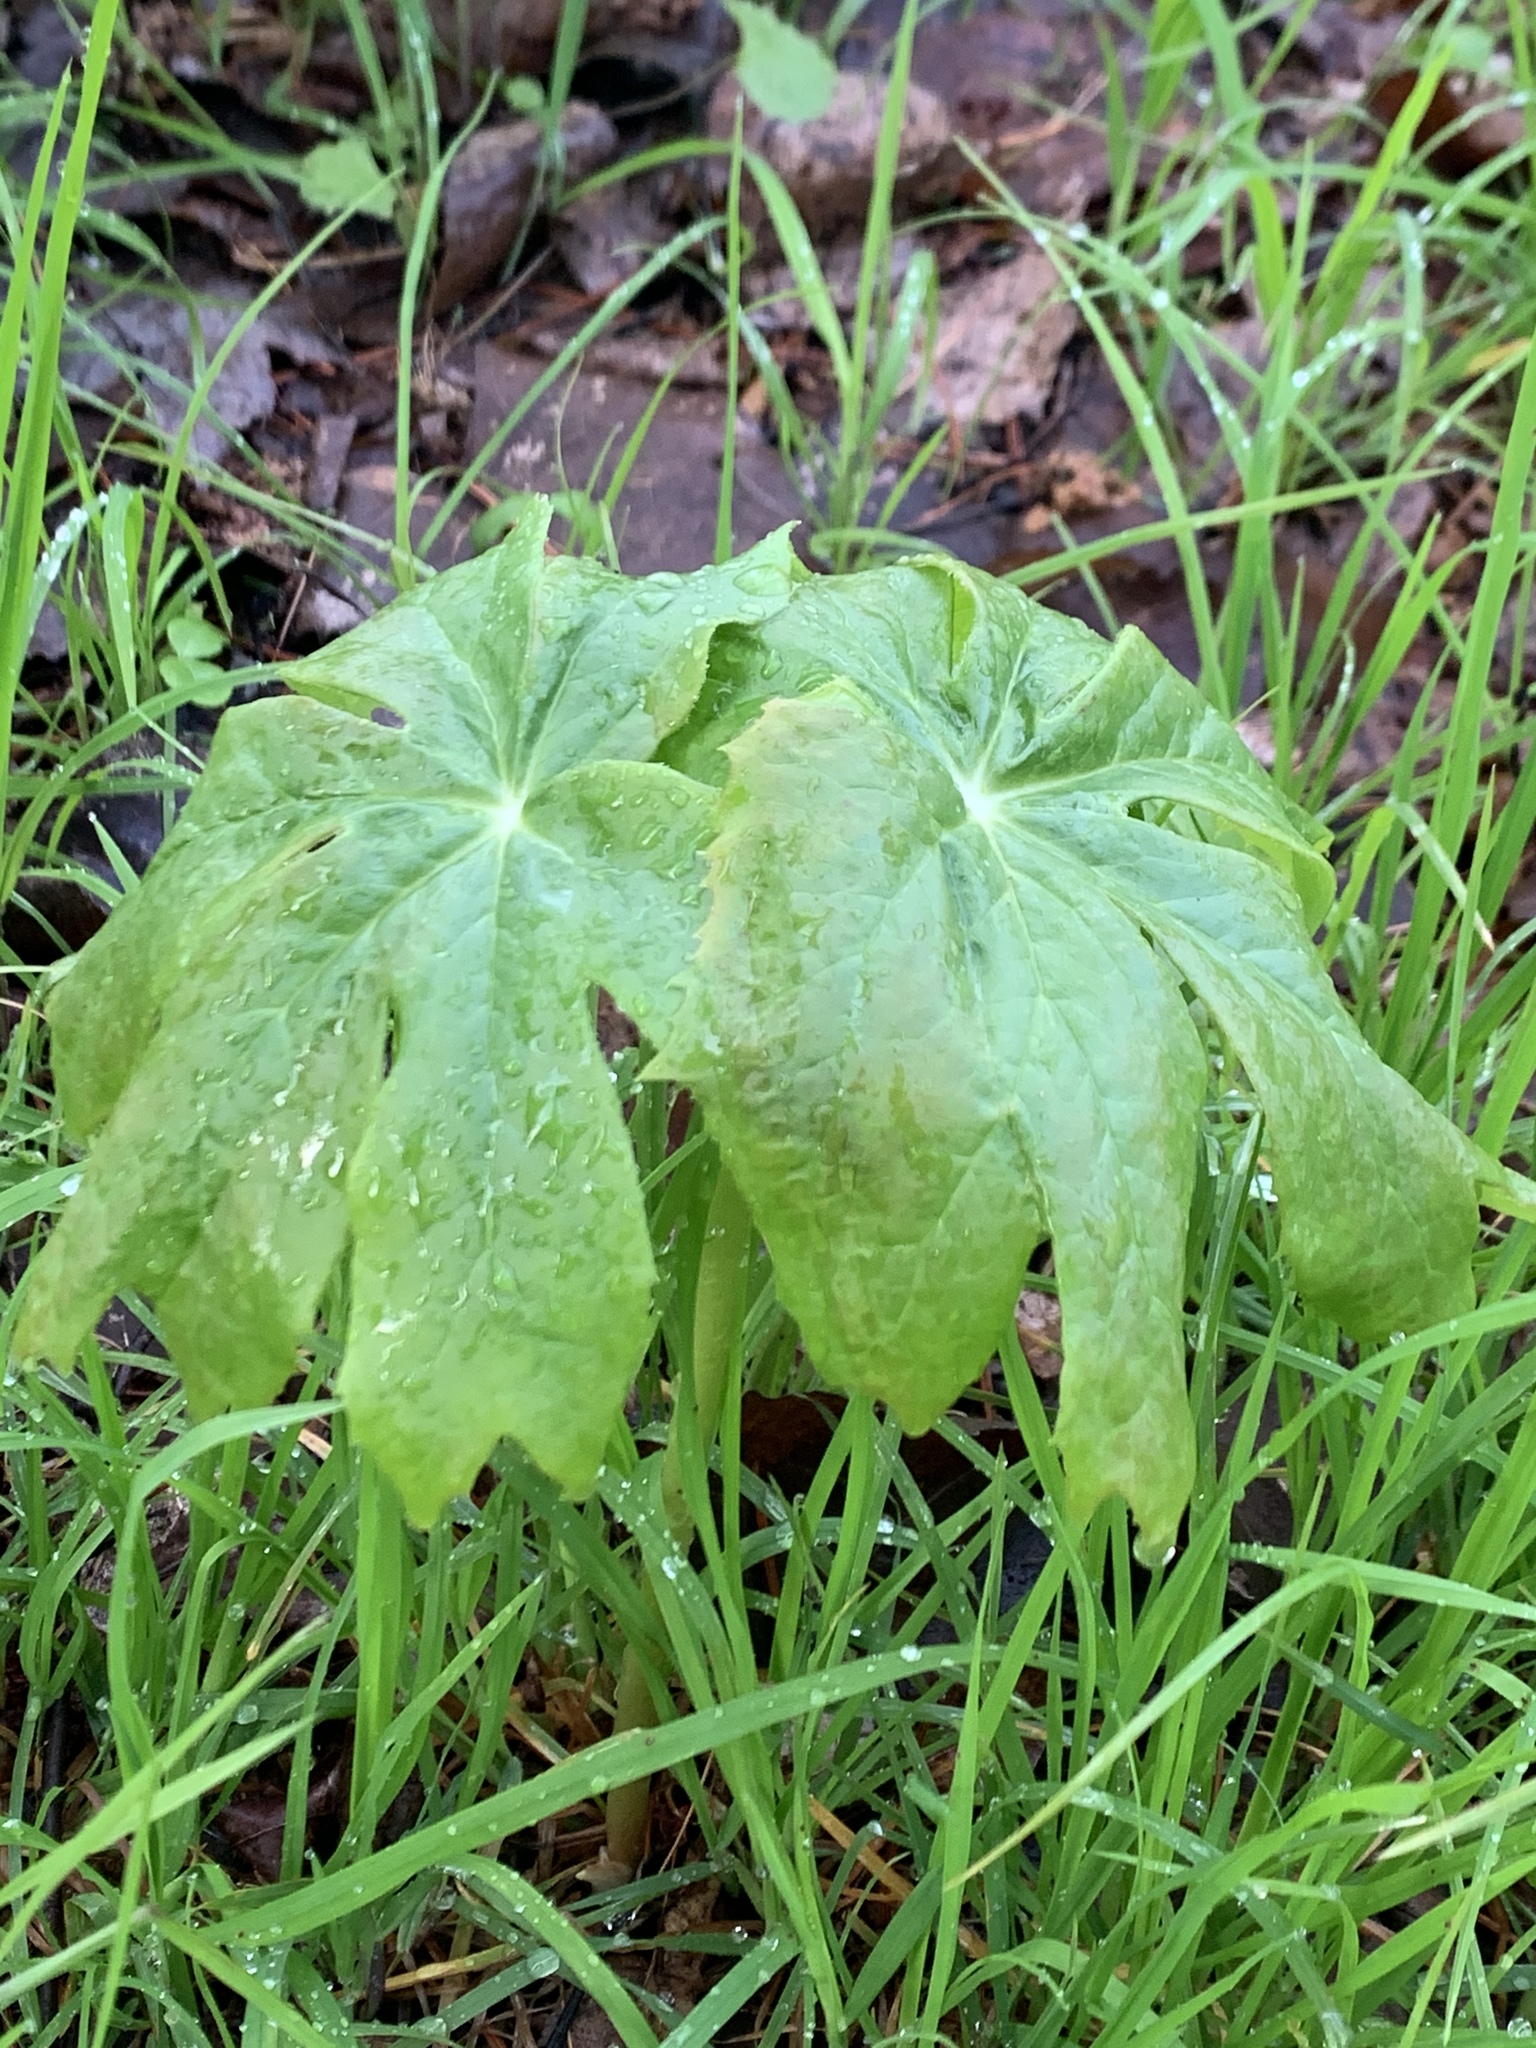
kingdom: Plantae
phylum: Tracheophyta
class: Magnoliopsida
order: Ranunculales
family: Berberidaceae
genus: Podophyllum
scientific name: Podophyllum peltatum
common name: Wild mandrake
